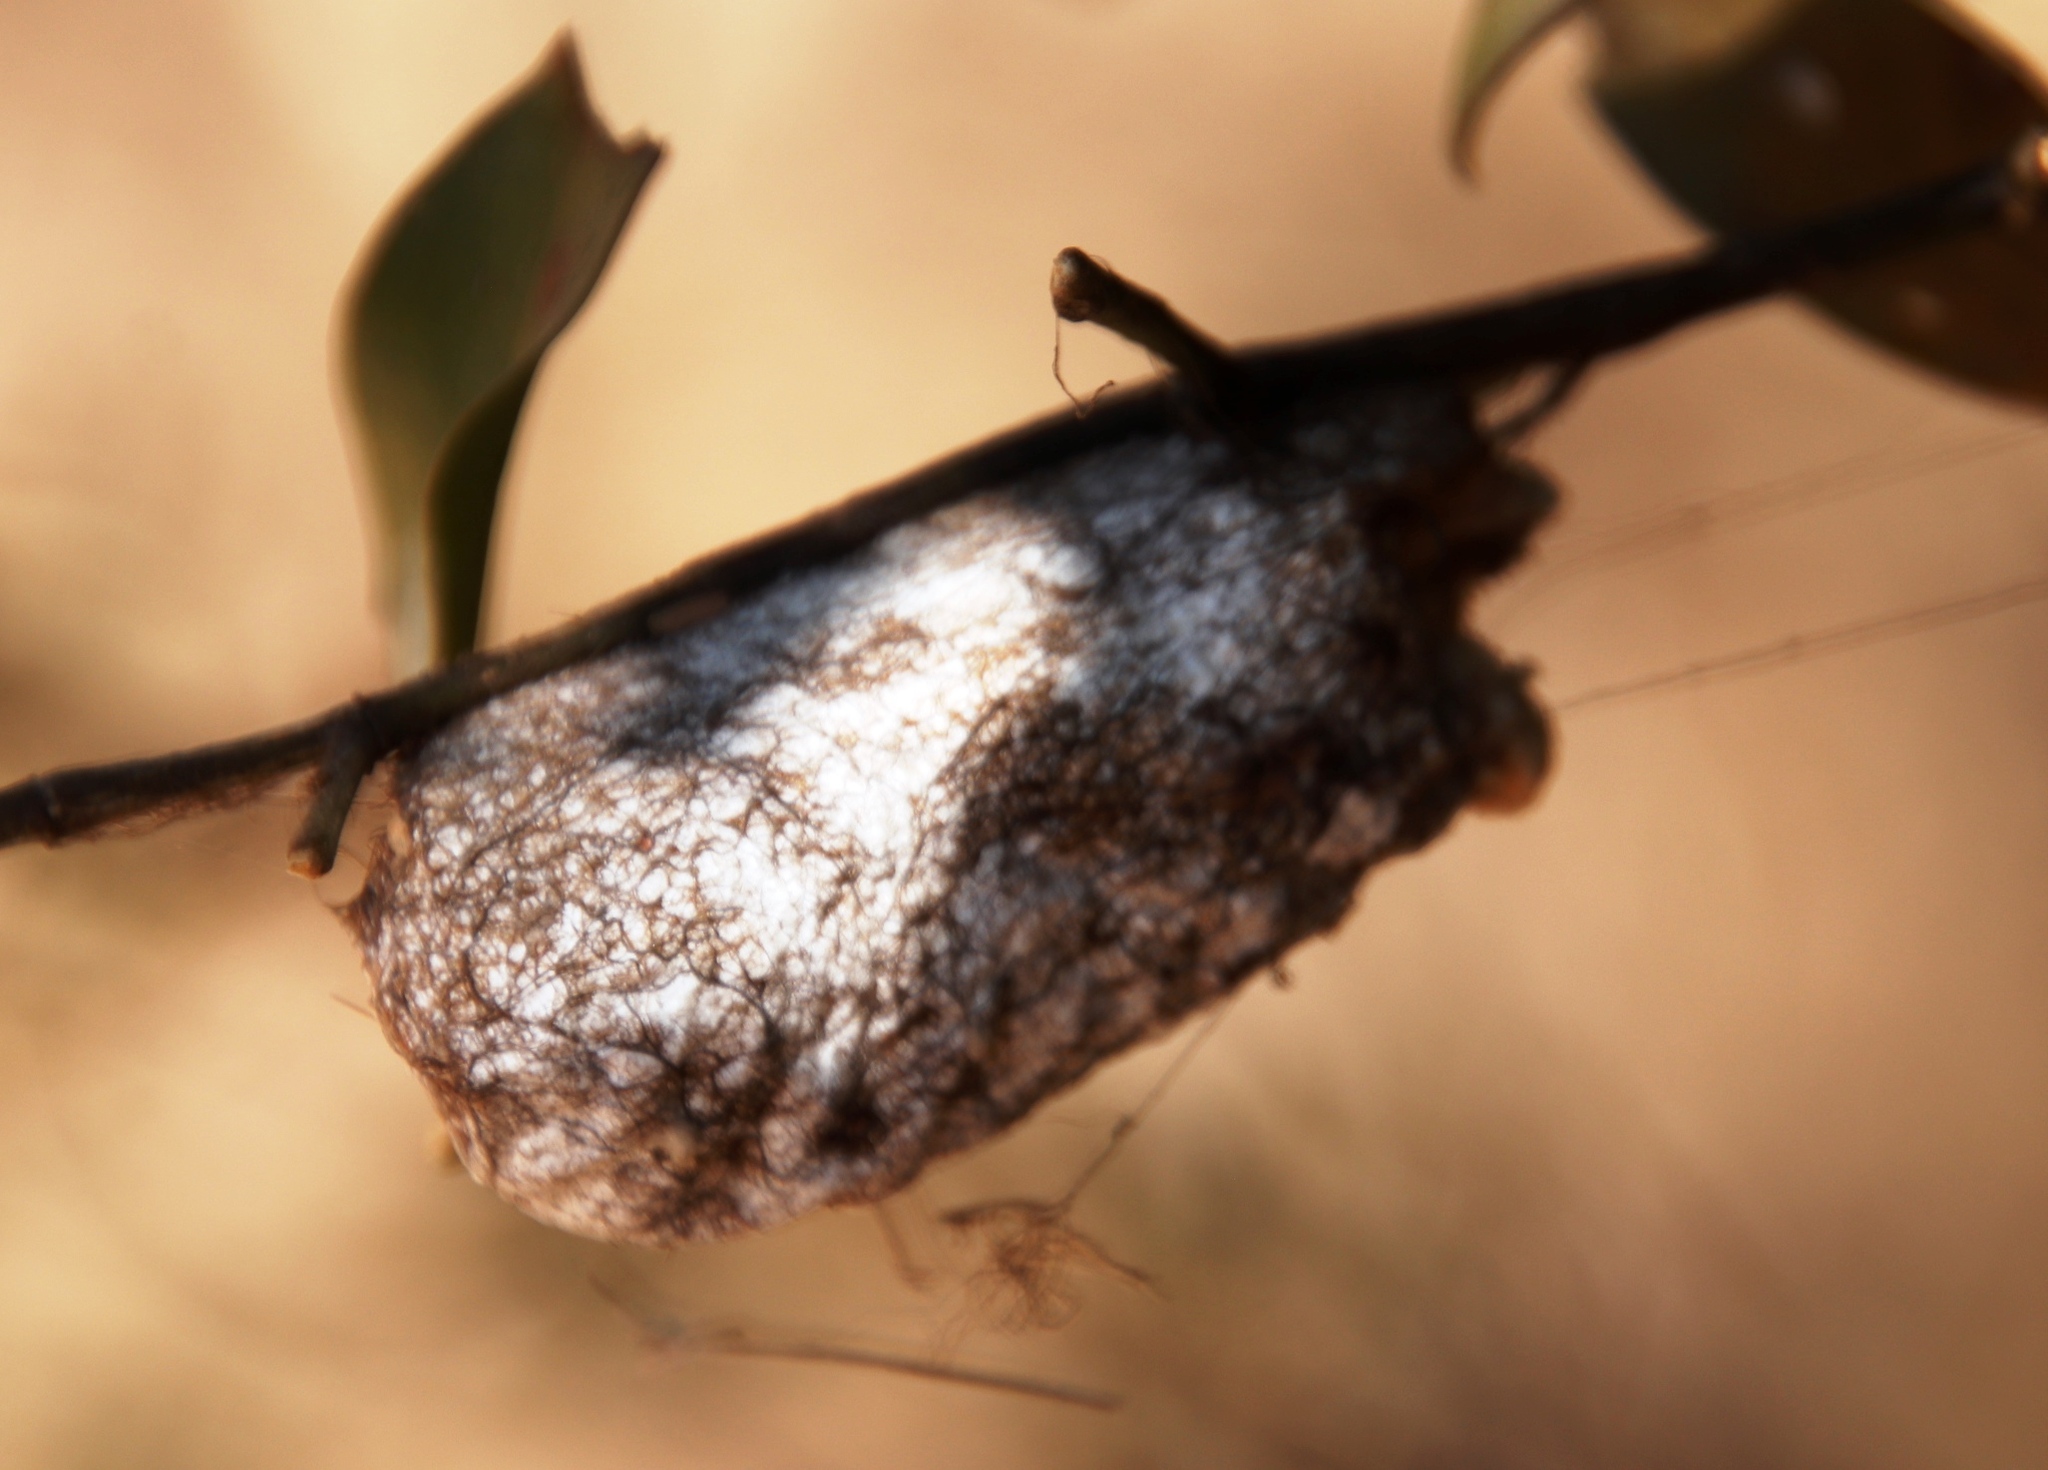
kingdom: Animalia
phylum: Arthropoda
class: Insecta
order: Lepidoptera
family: Lasiocampidae
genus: Gonometa
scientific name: Gonometa postica
